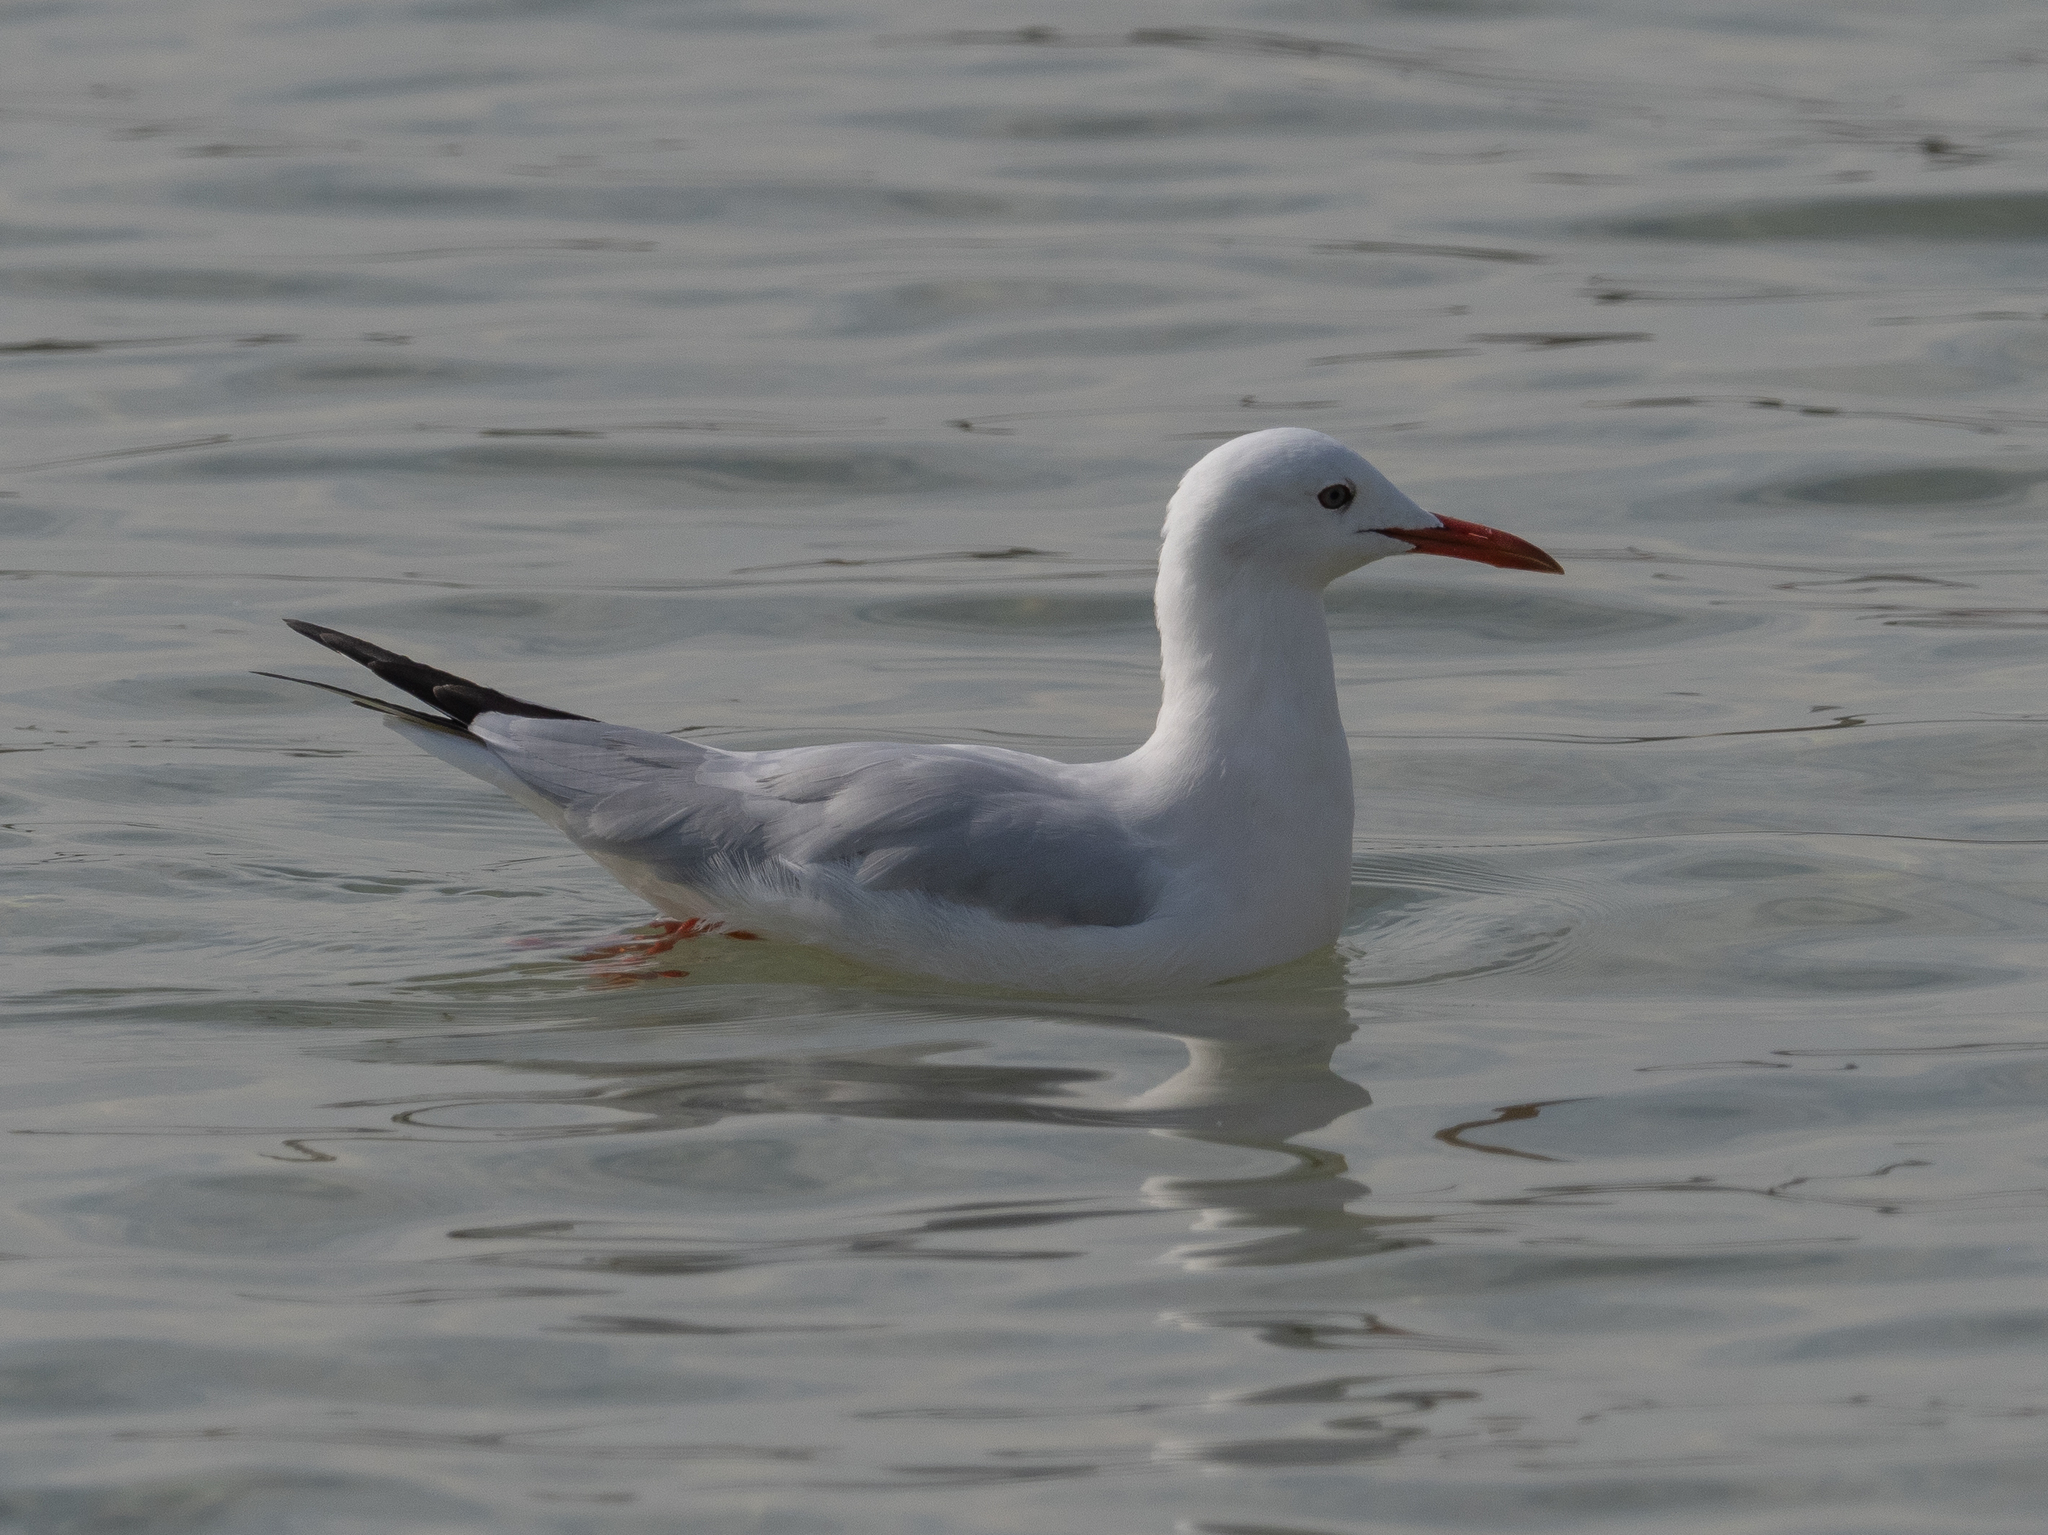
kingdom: Animalia
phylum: Chordata
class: Aves
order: Charadriiformes
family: Laridae
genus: Chroicocephalus
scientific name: Chroicocephalus genei
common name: Slender-billed gull
